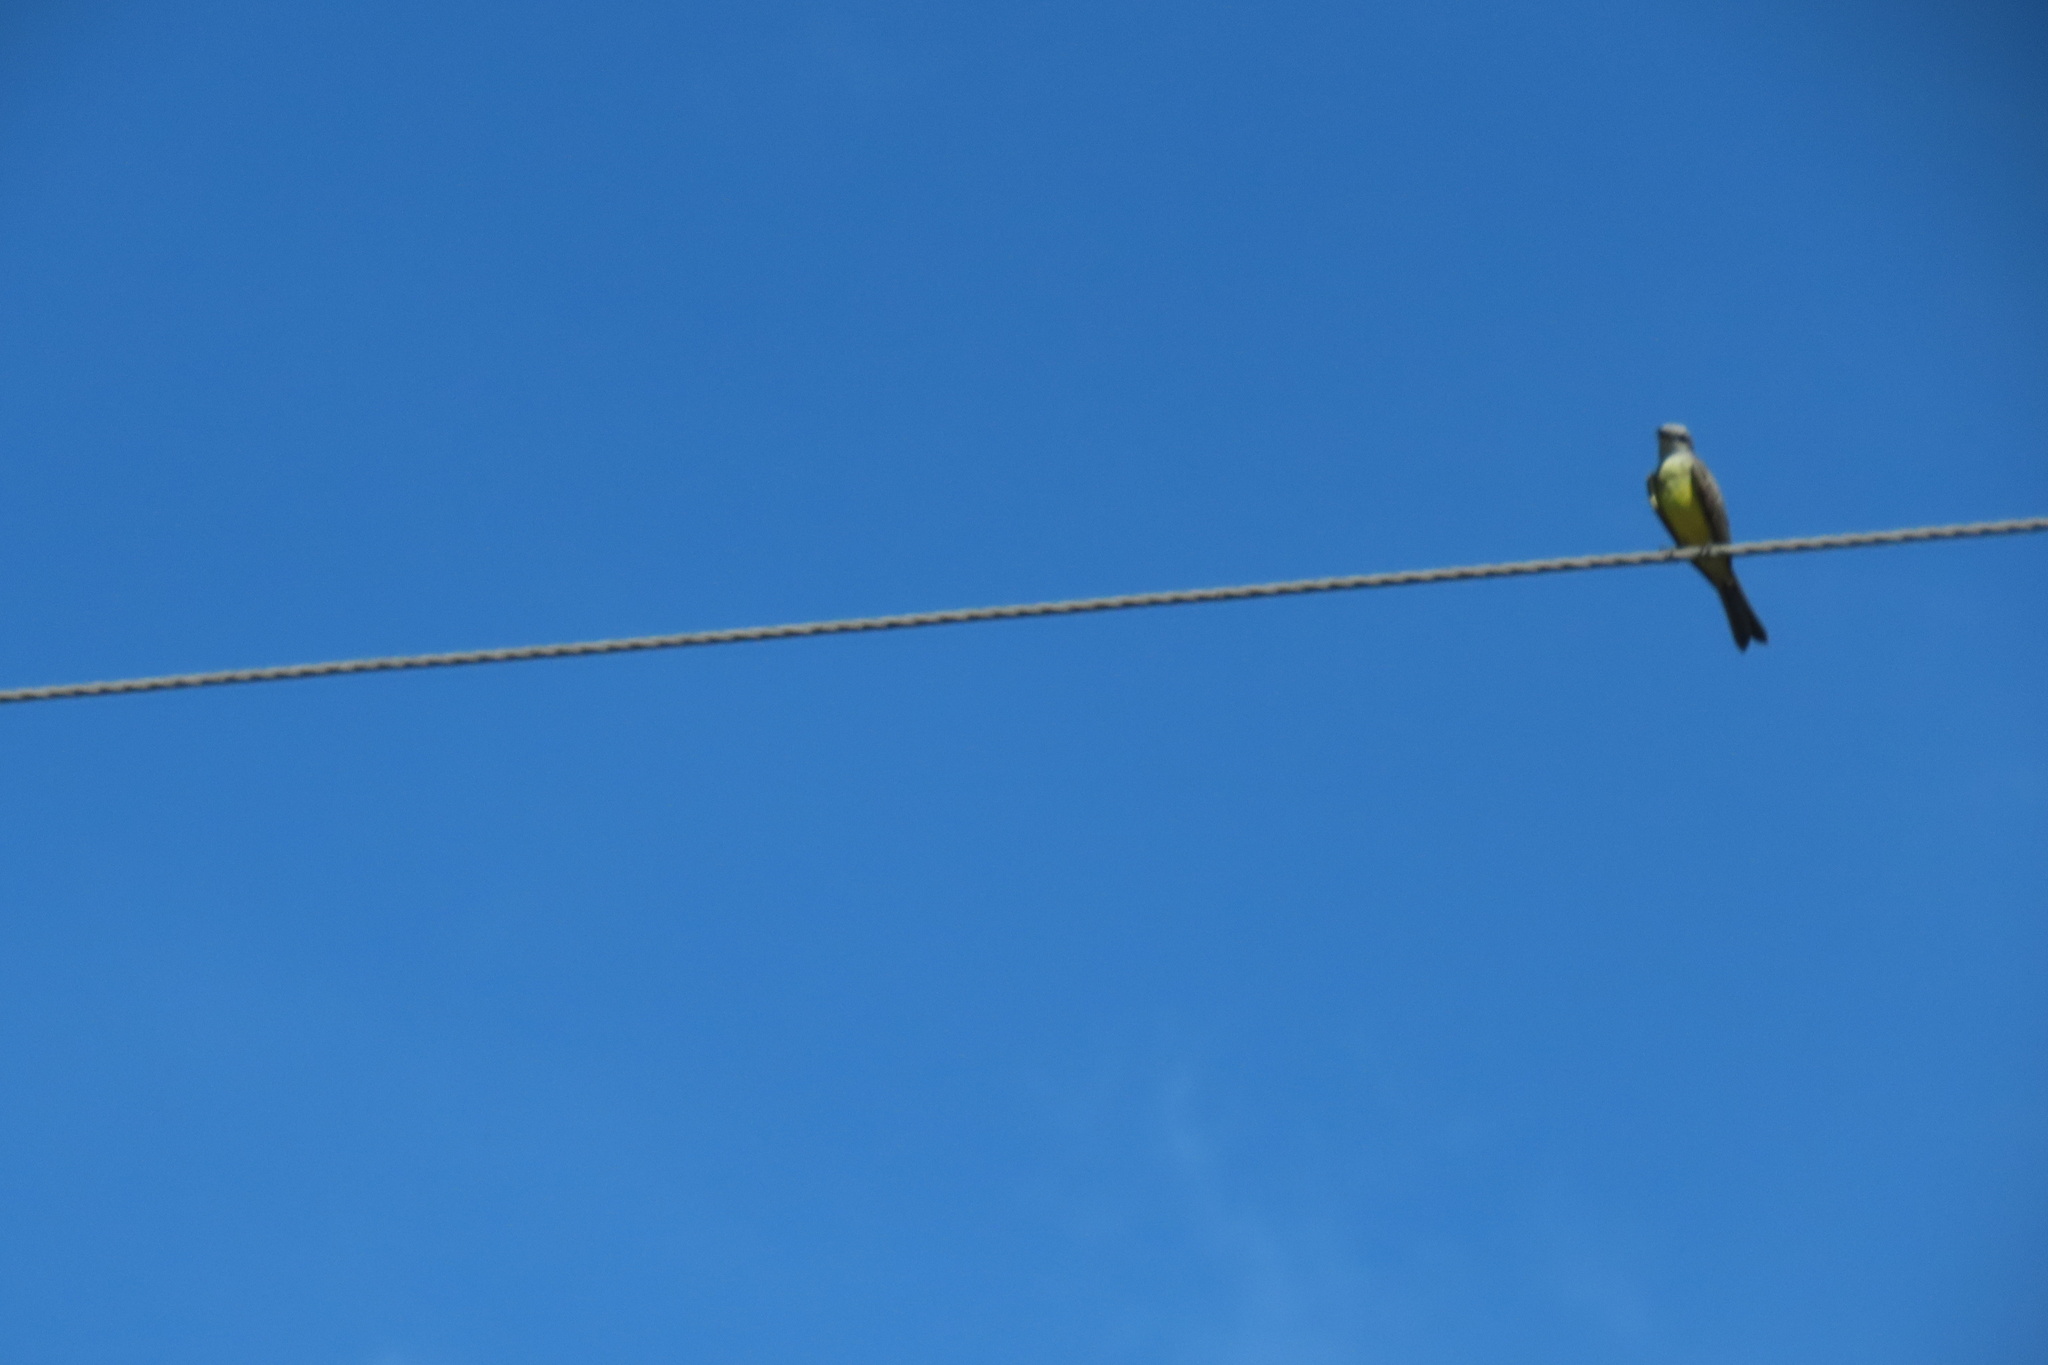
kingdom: Animalia
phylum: Chordata
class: Aves
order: Passeriformes
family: Tyrannidae
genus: Tyrannus
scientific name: Tyrannus melancholicus
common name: Tropical kingbird
